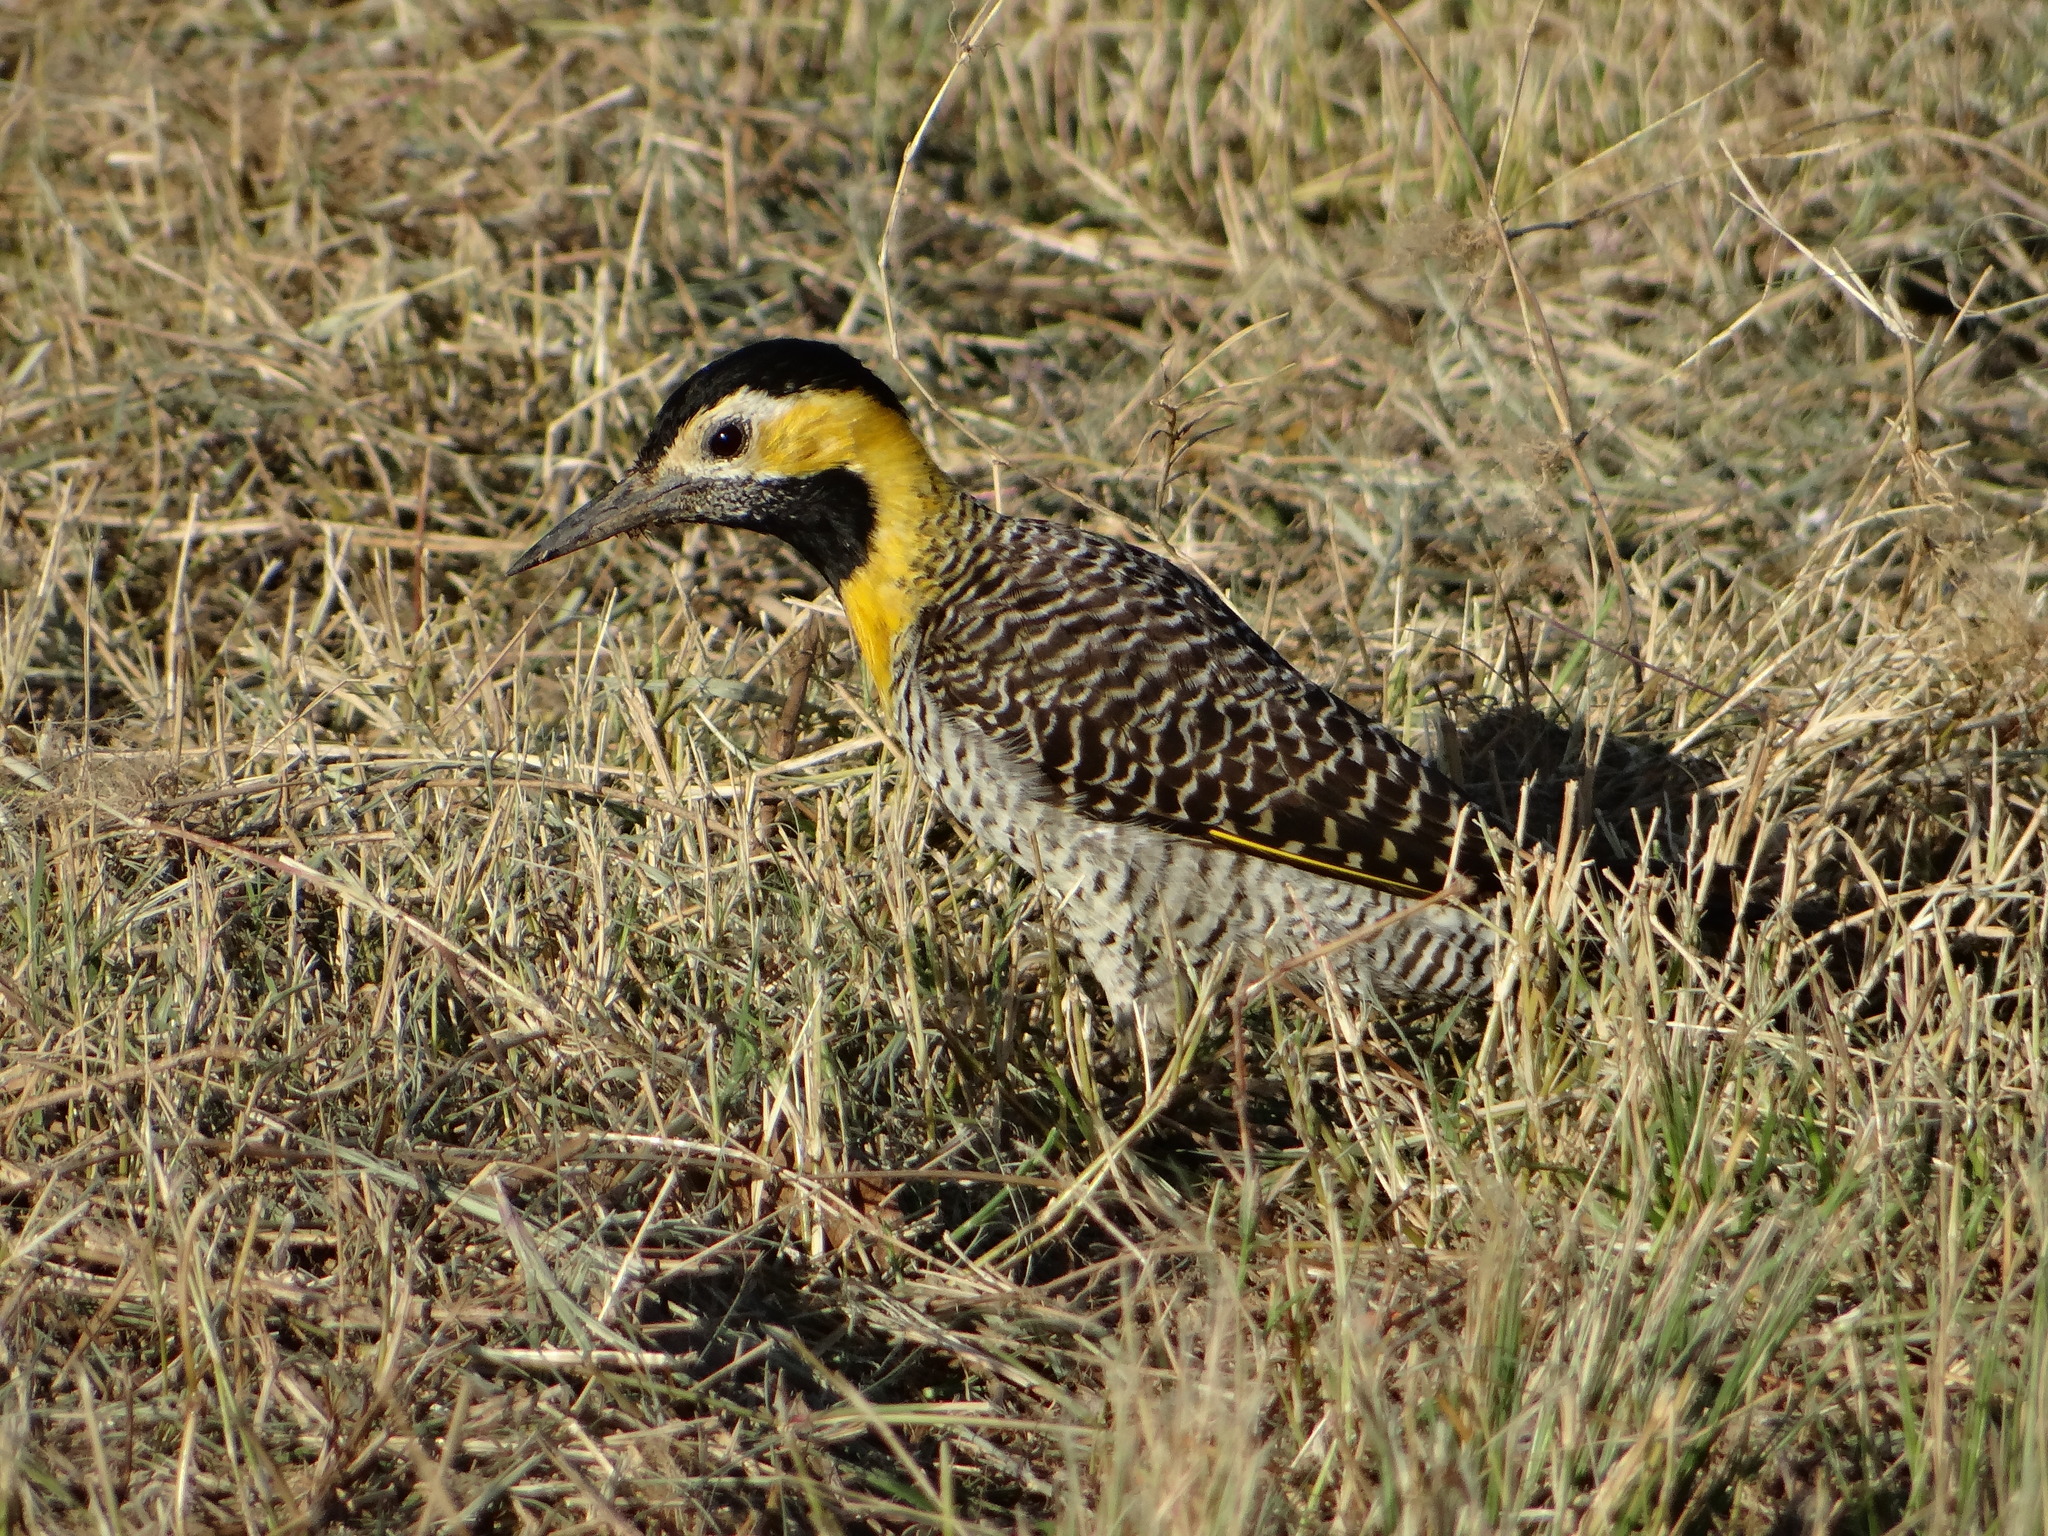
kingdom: Animalia
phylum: Chordata
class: Aves
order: Piciformes
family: Picidae
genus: Colaptes
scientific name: Colaptes campestris
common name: Campo flicker
